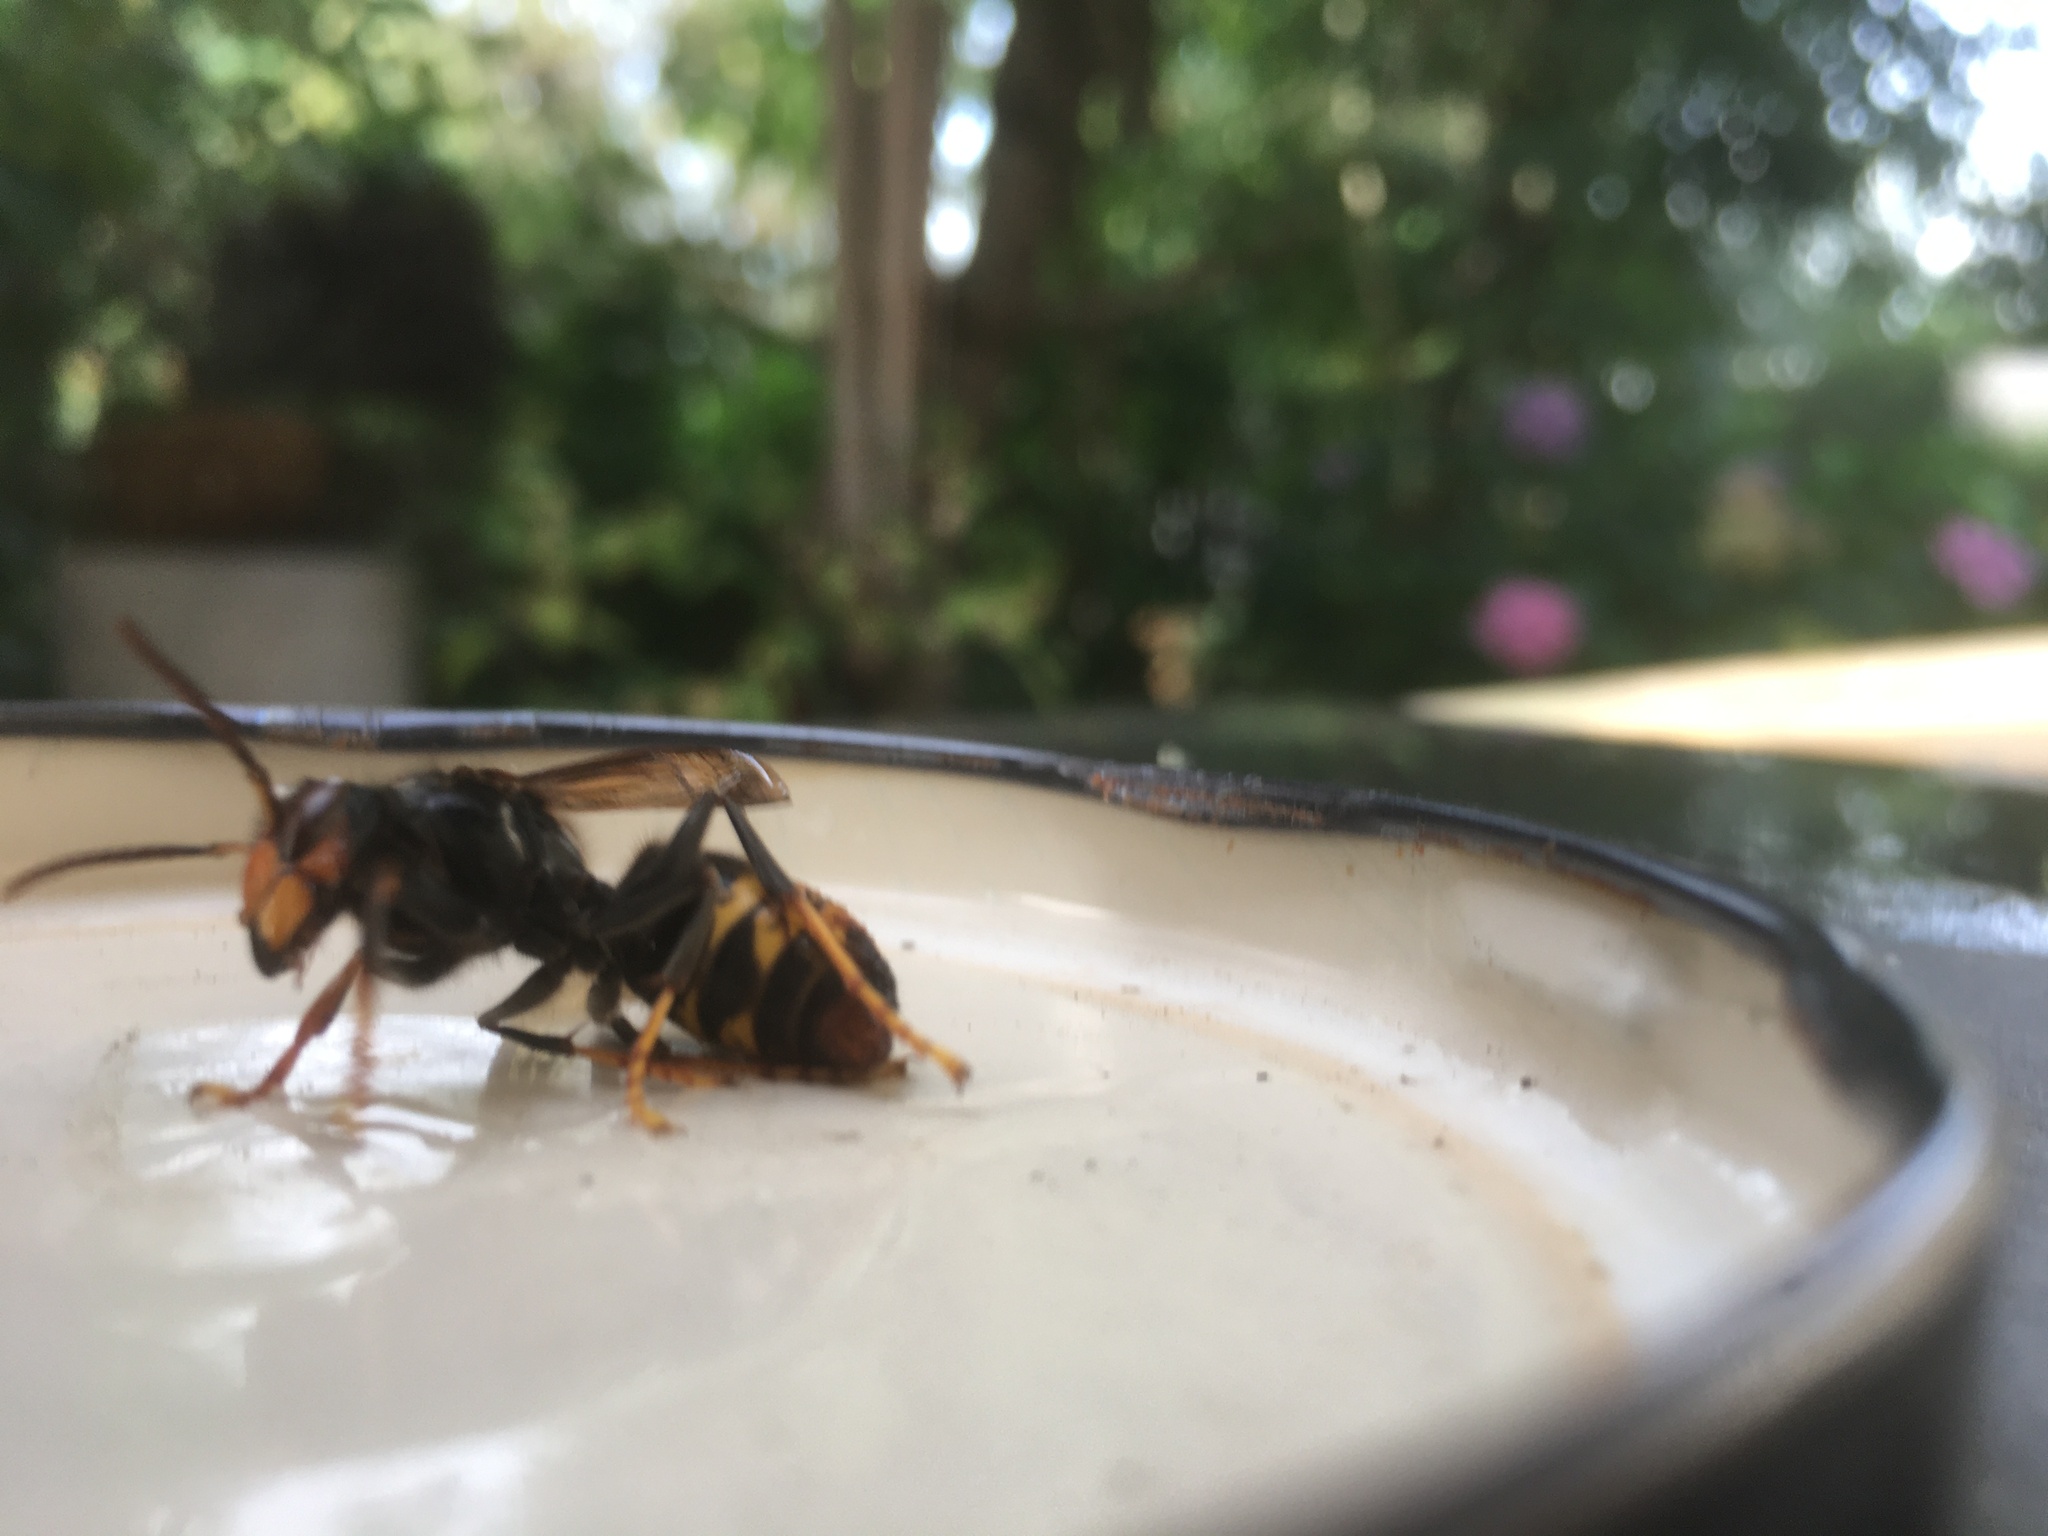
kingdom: Animalia
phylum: Arthropoda
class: Insecta
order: Hymenoptera
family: Vespidae
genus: Vespa
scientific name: Vespa velutina
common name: Asian hornet
